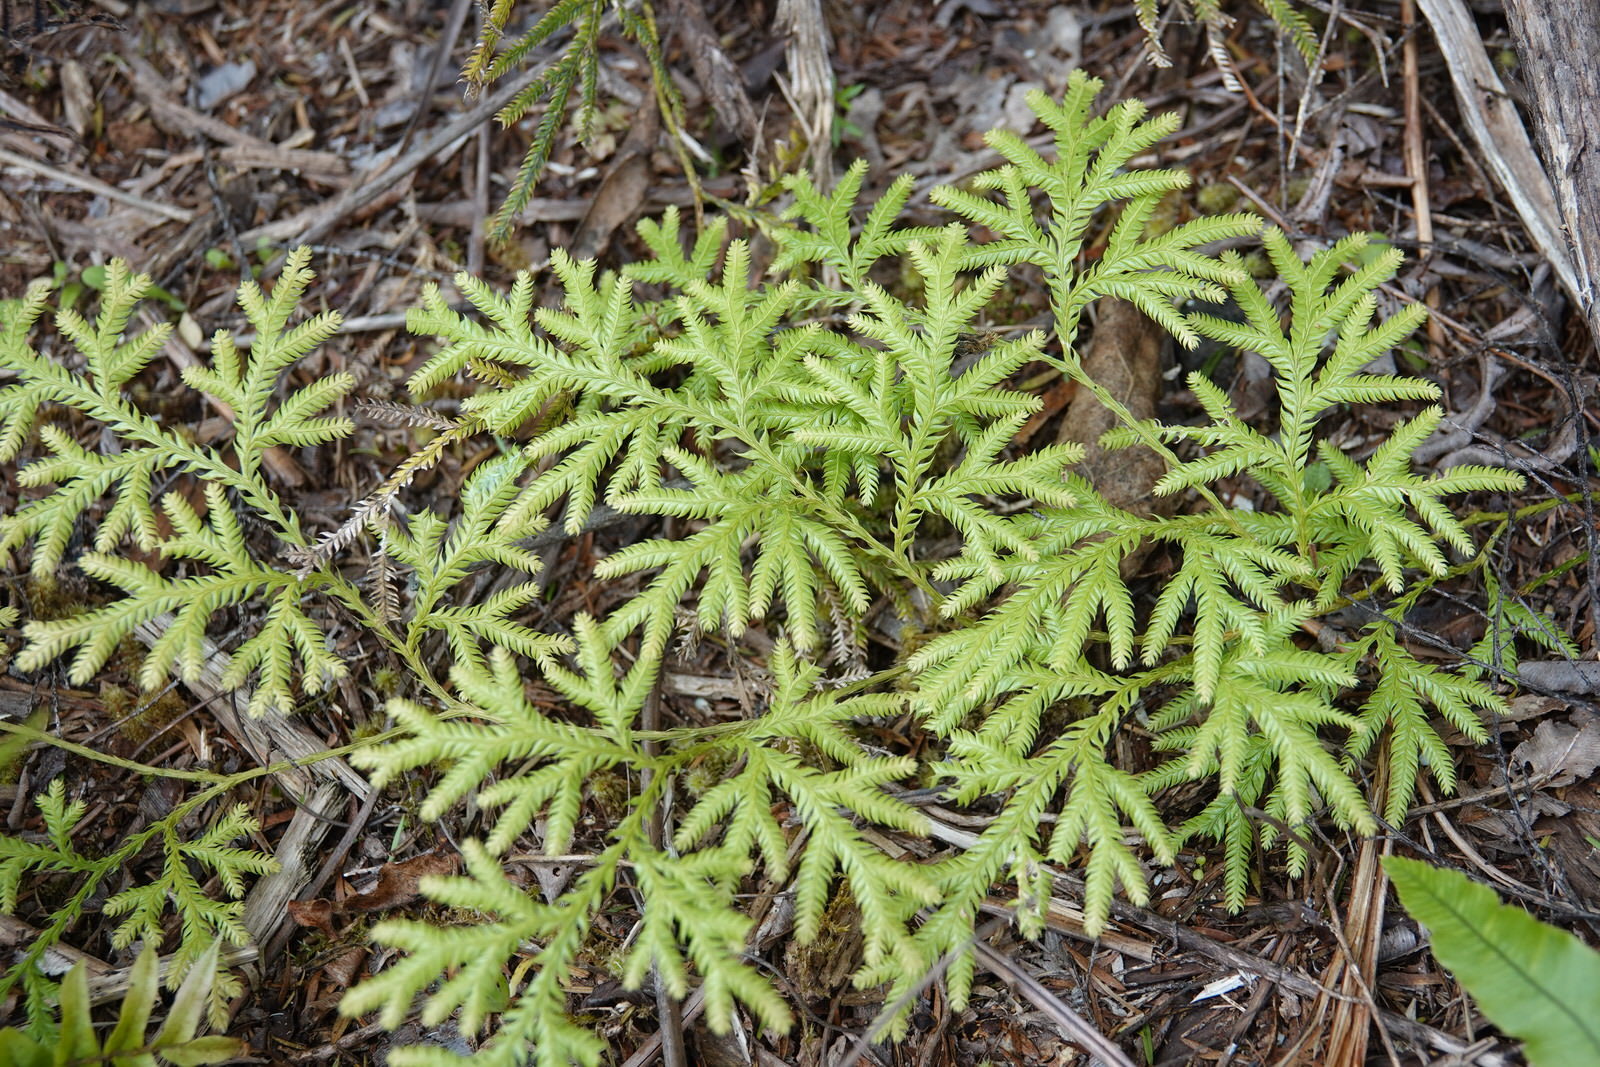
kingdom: Plantae
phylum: Tracheophyta
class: Lycopodiopsida
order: Lycopodiales
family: Lycopodiaceae
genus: Lycopodium
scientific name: Lycopodium volubile
